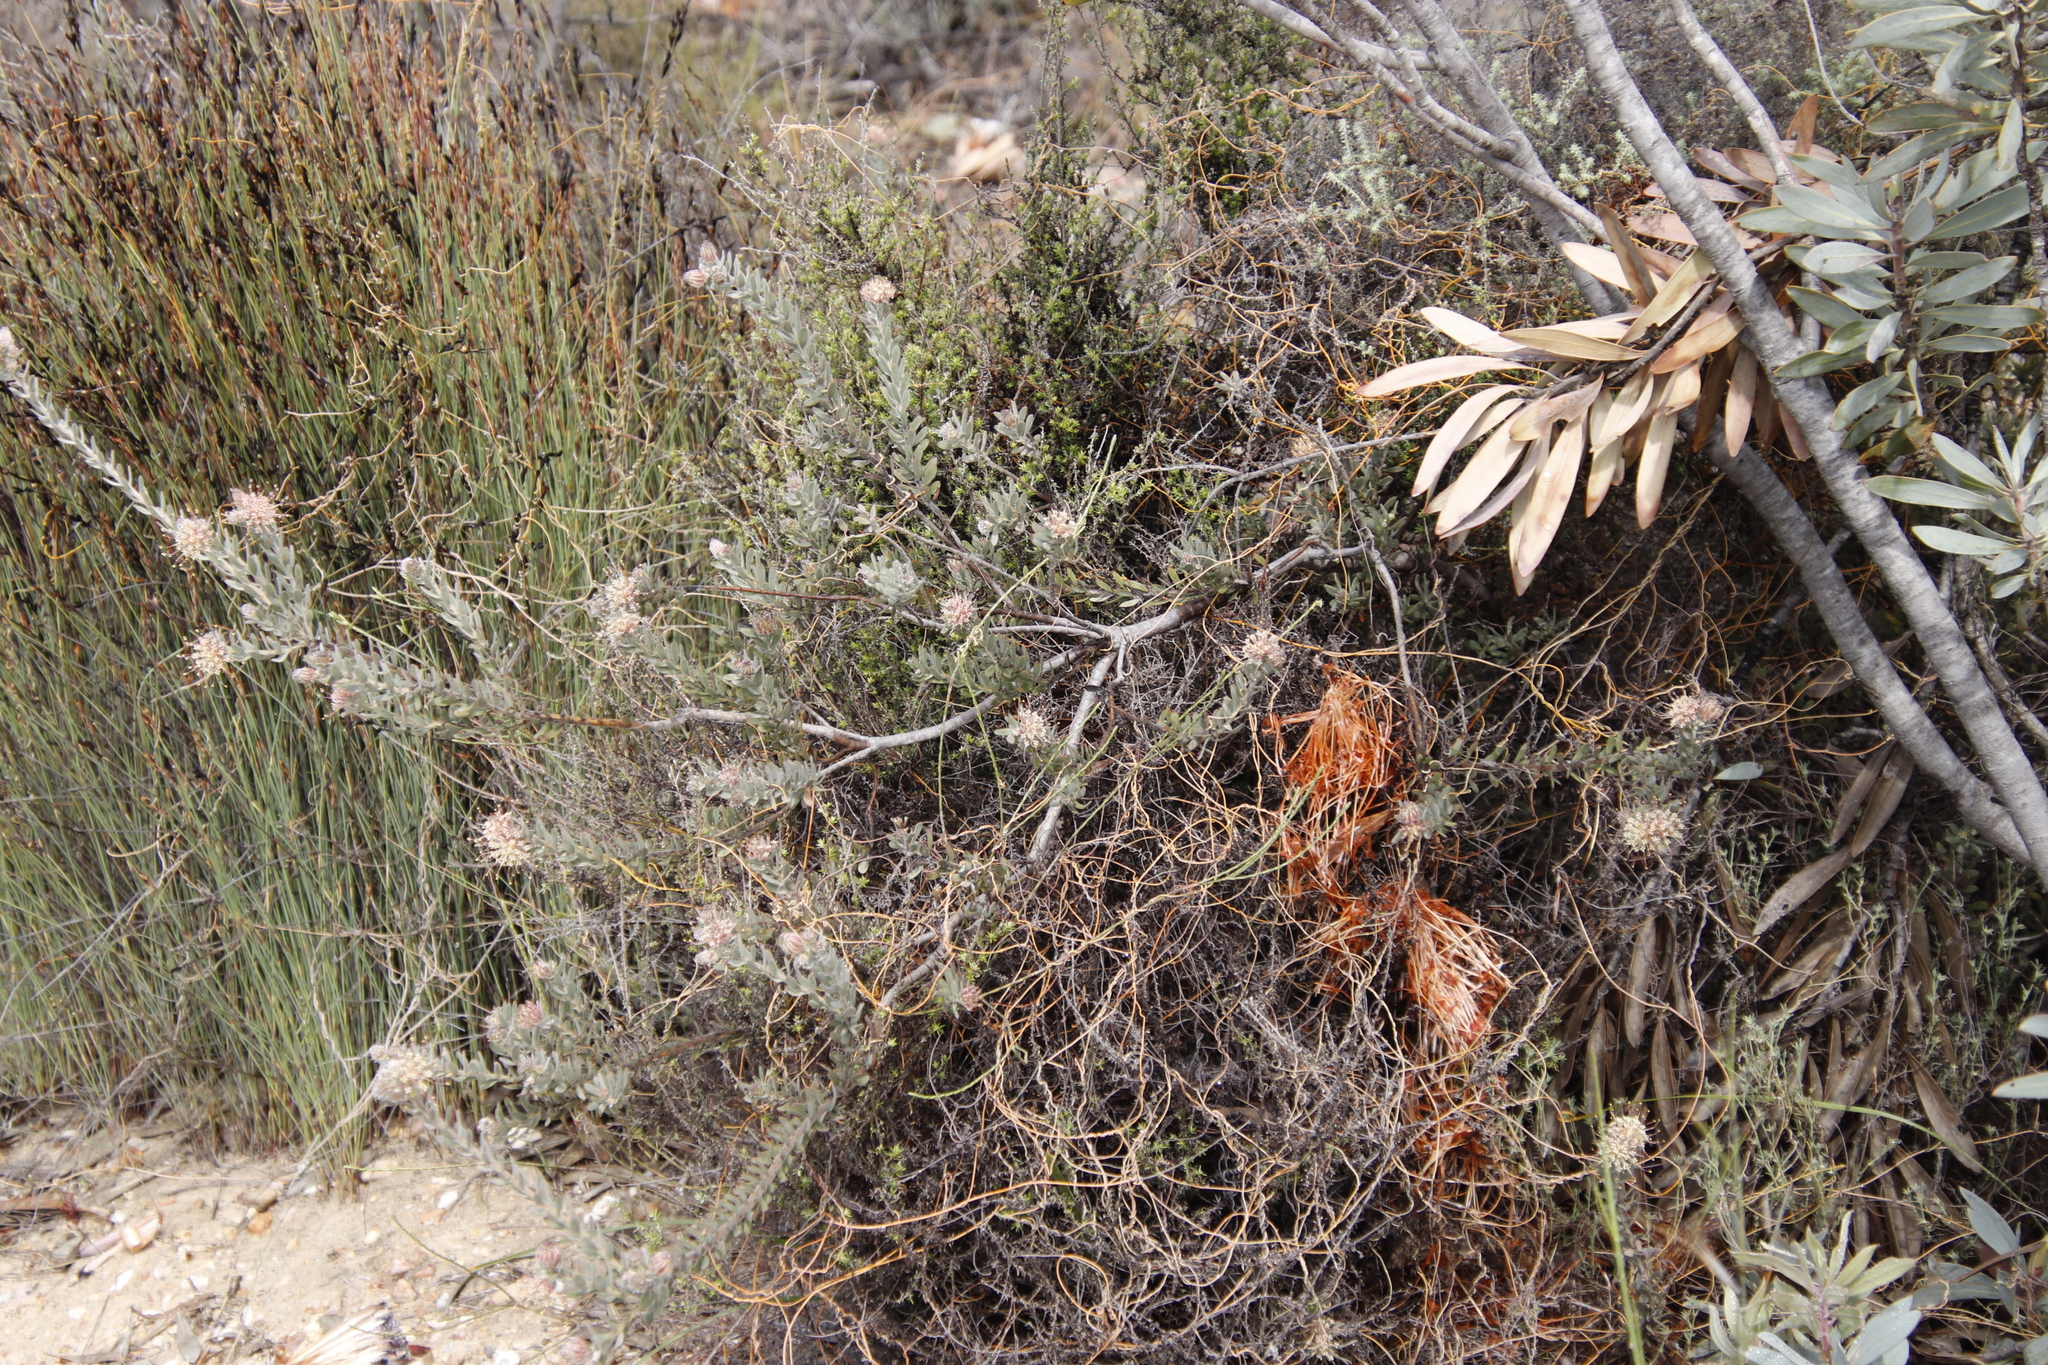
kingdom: Plantae
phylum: Tracheophyta
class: Magnoliopsida
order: Proteales
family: Proteaceae
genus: Leucospermum
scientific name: Leucospermum calligerum
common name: Arid pincushion
